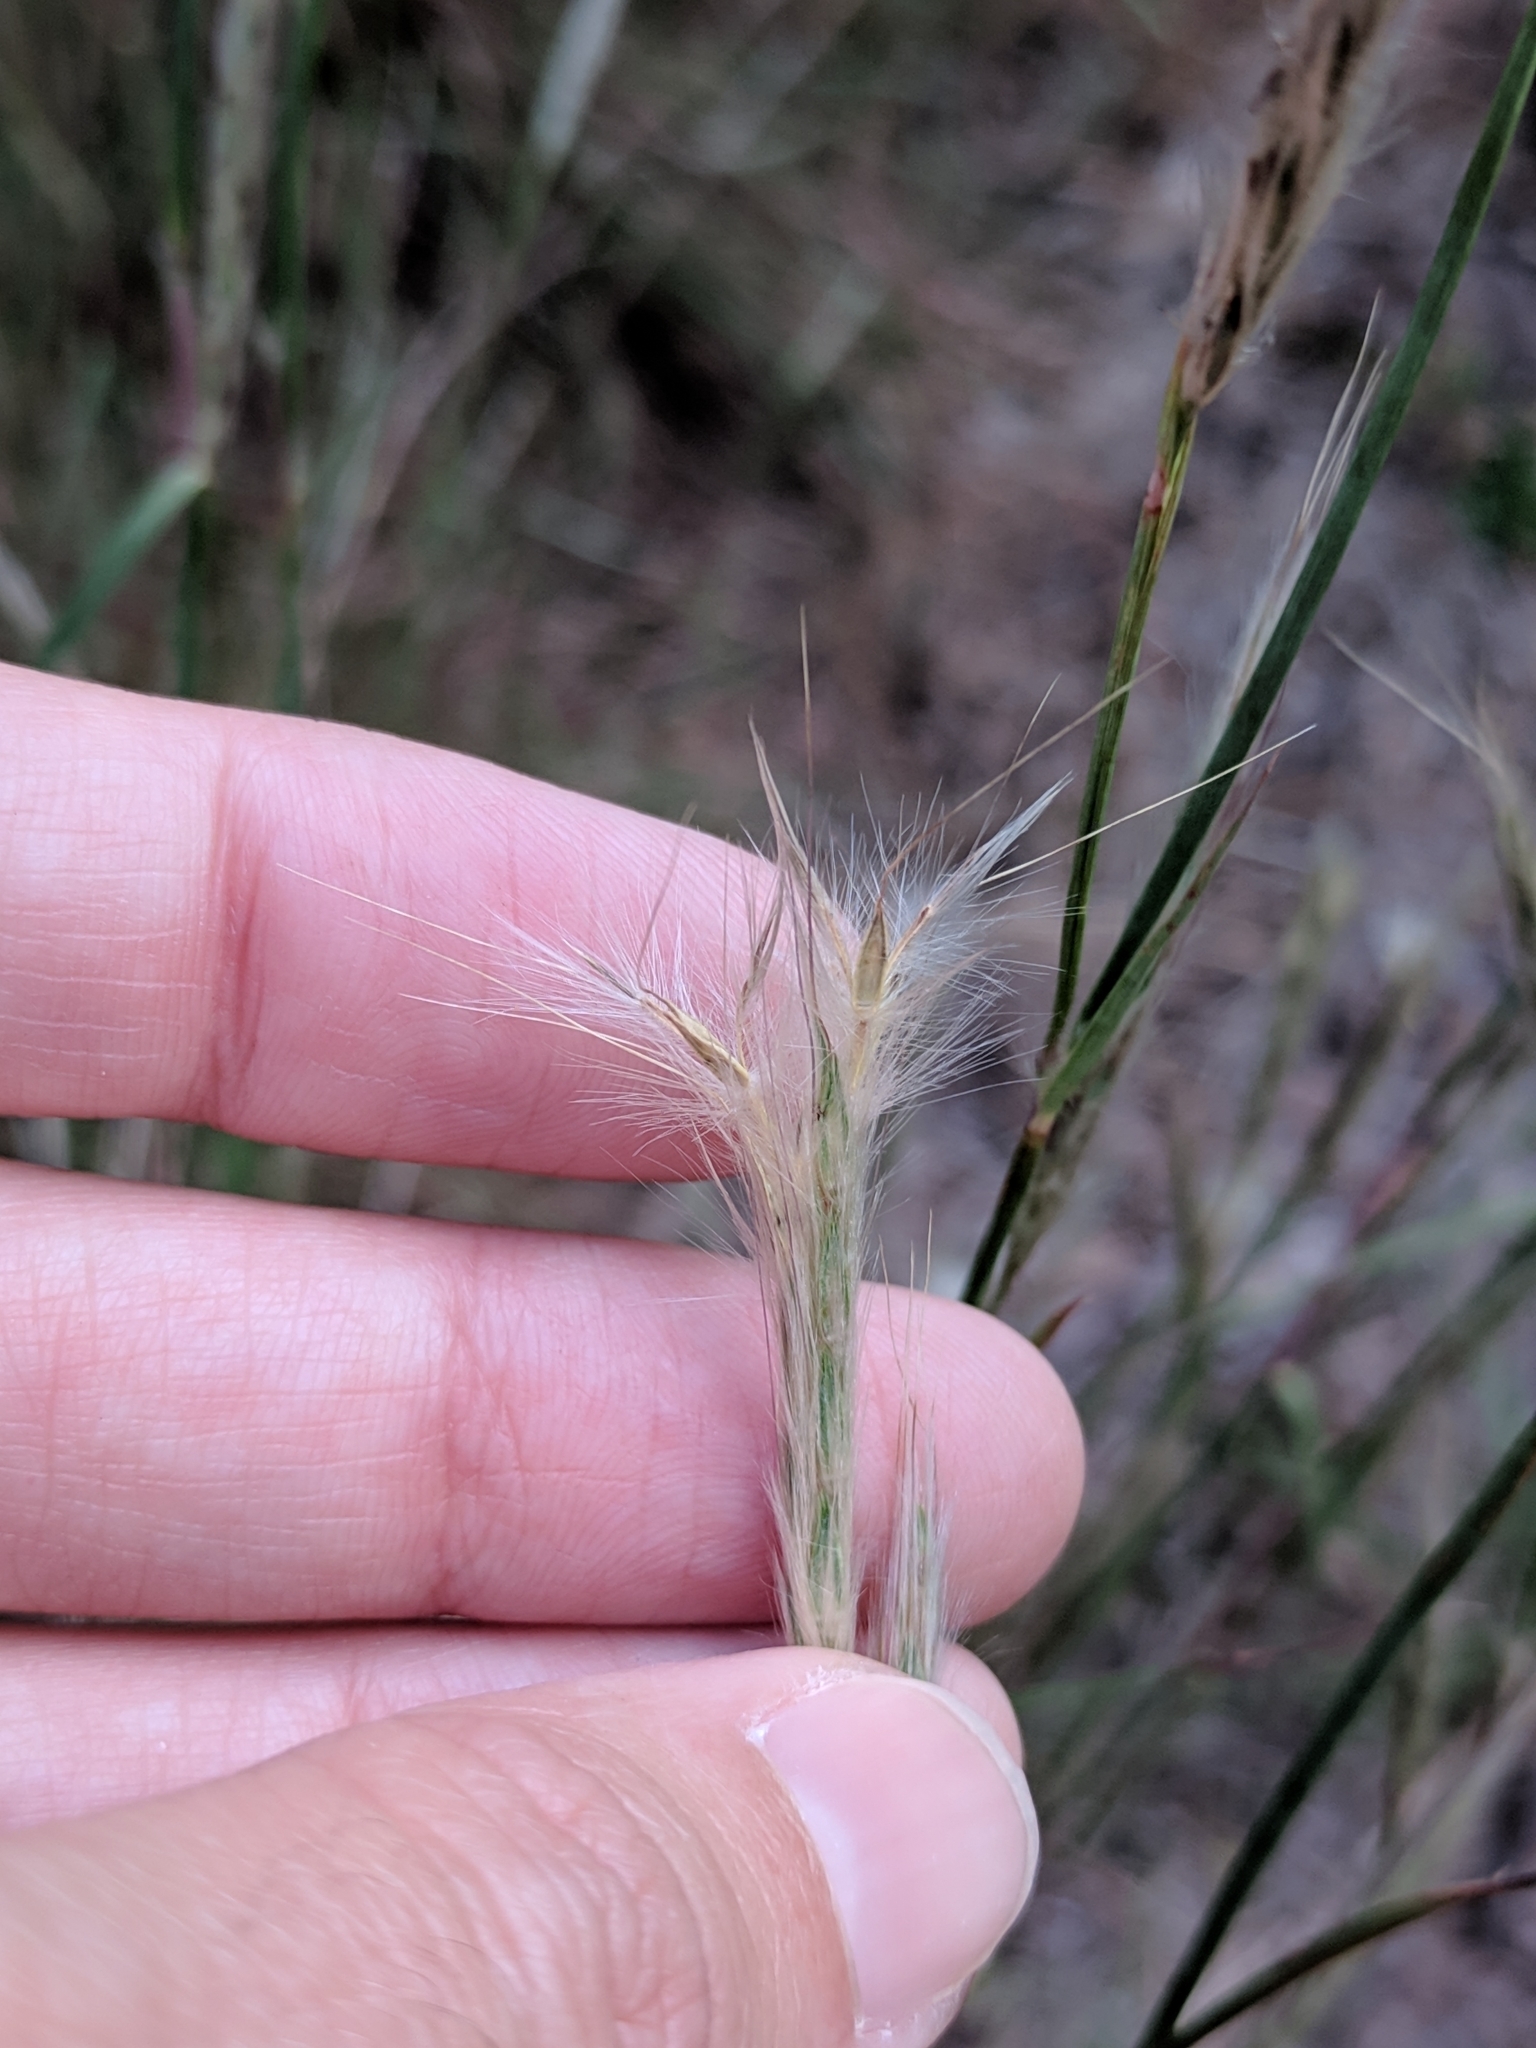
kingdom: Plantae
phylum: Tracheophyta
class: Liliopsida
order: Poales
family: Poaceae
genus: Andropogon
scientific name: Andropogon ternarius
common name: Split bluestem
